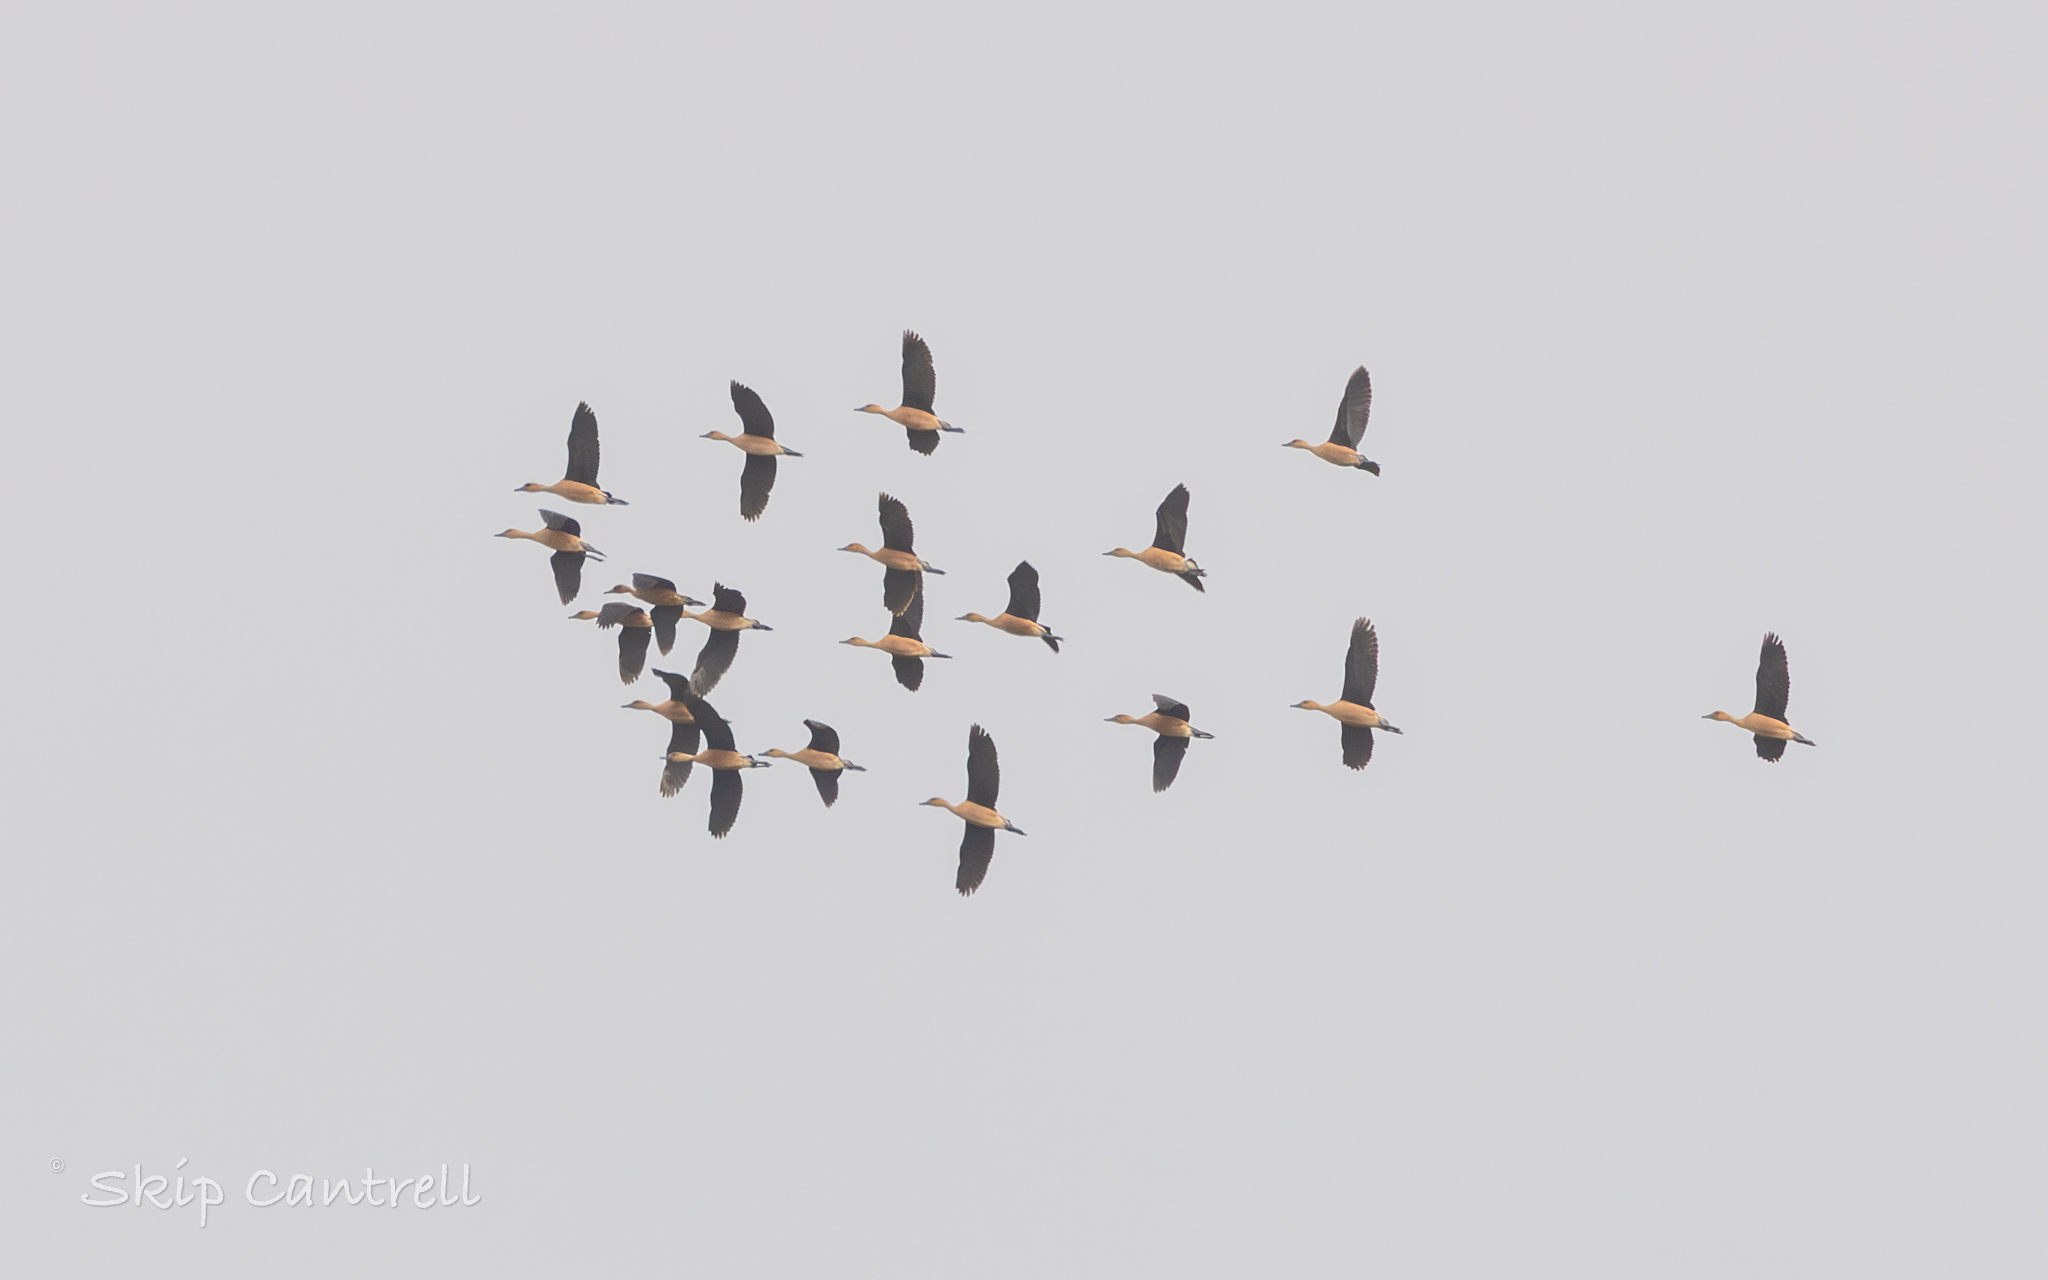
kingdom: Animalia
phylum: Chordata
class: Aves
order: Anseriformes
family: Anatidae
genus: Dendrocygna
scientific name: Dendrocygna bicolor
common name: Fulvous whistling duck
